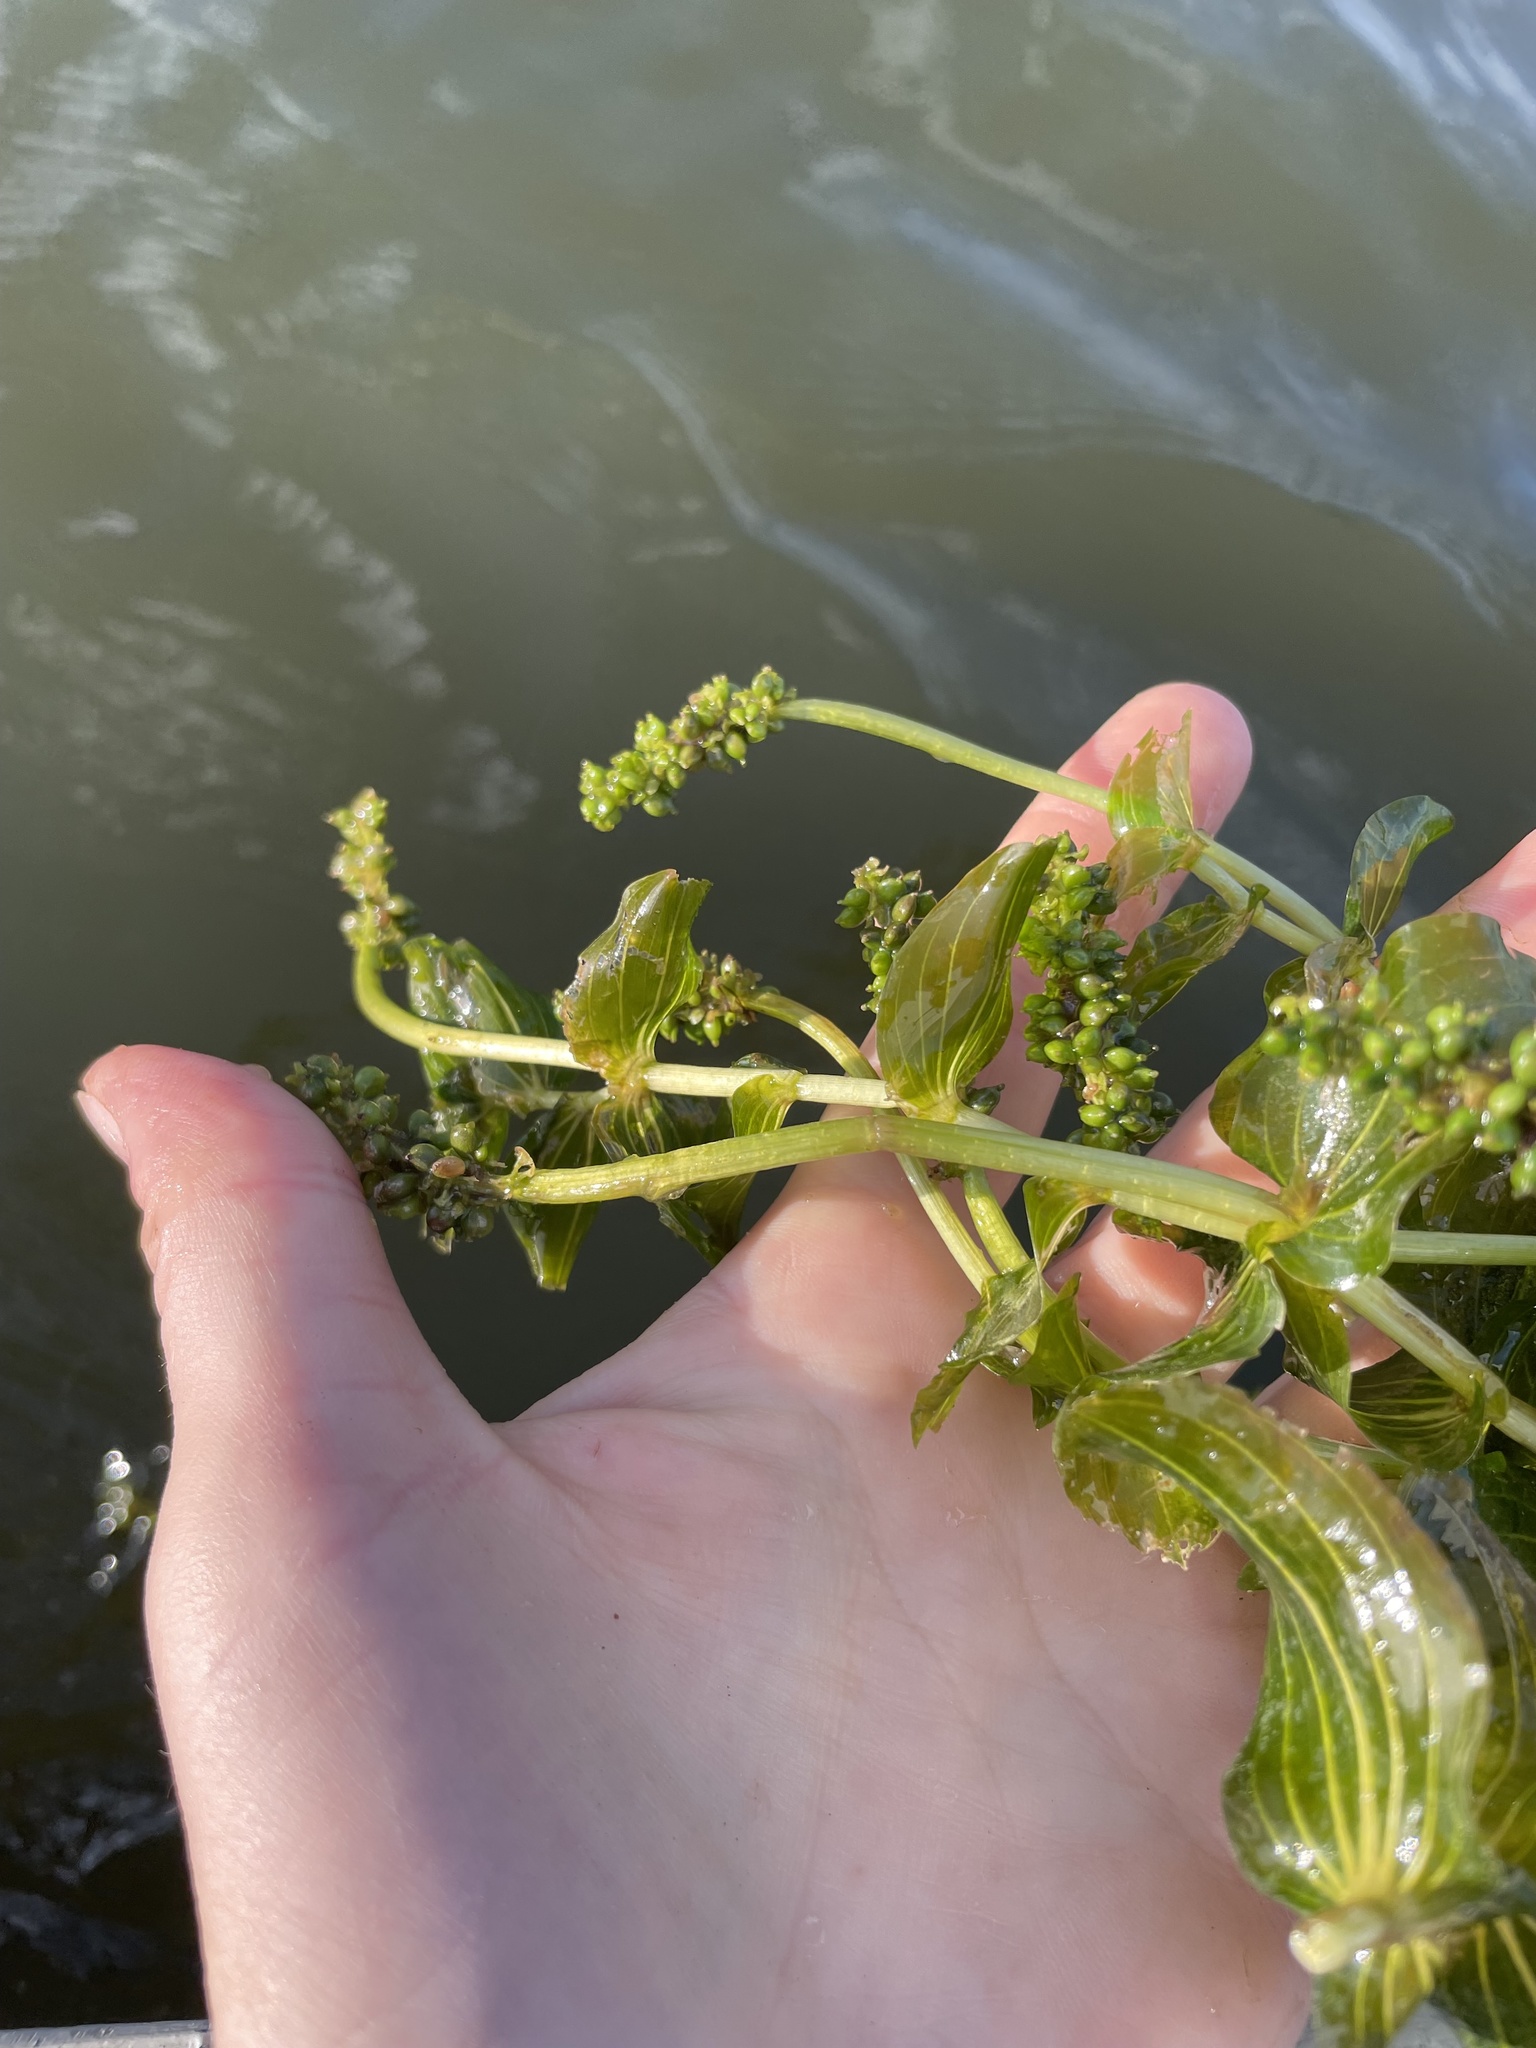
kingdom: Plantae
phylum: Tracheophyta
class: Liliopsida
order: Alismatales
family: Potamogetonaceae
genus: Potamogeton
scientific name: Potamogeton perfoliatus
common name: Perfoliate pondweed
